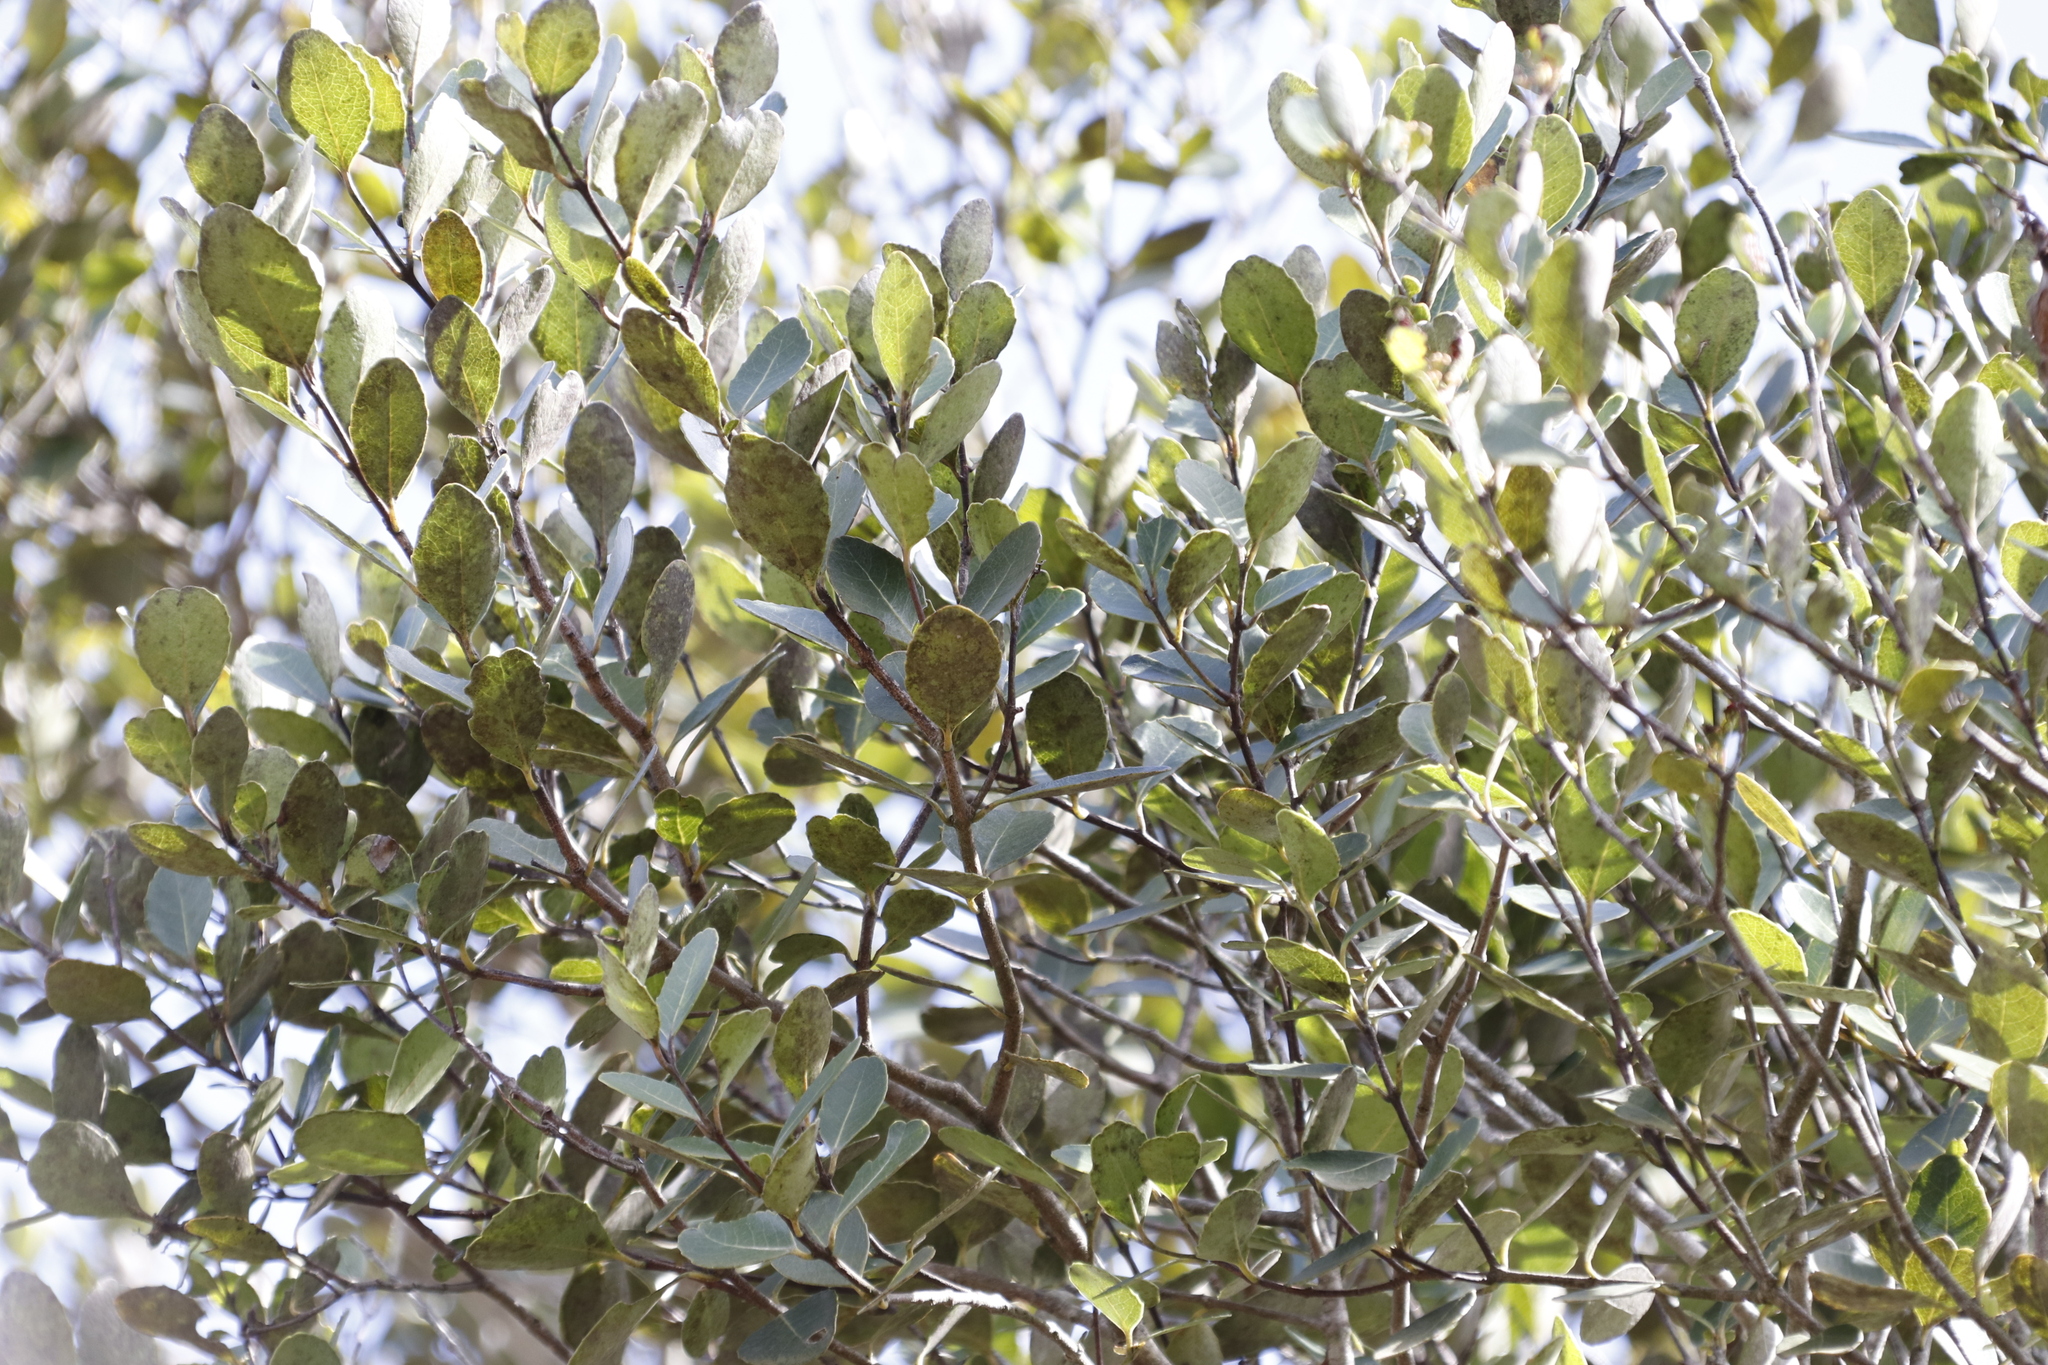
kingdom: Plantae
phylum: Tracheophyta
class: Magnoliopsida
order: Celastrales
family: Celastraceae
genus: Cassine
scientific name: Cassine peragua
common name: Cape saffron
